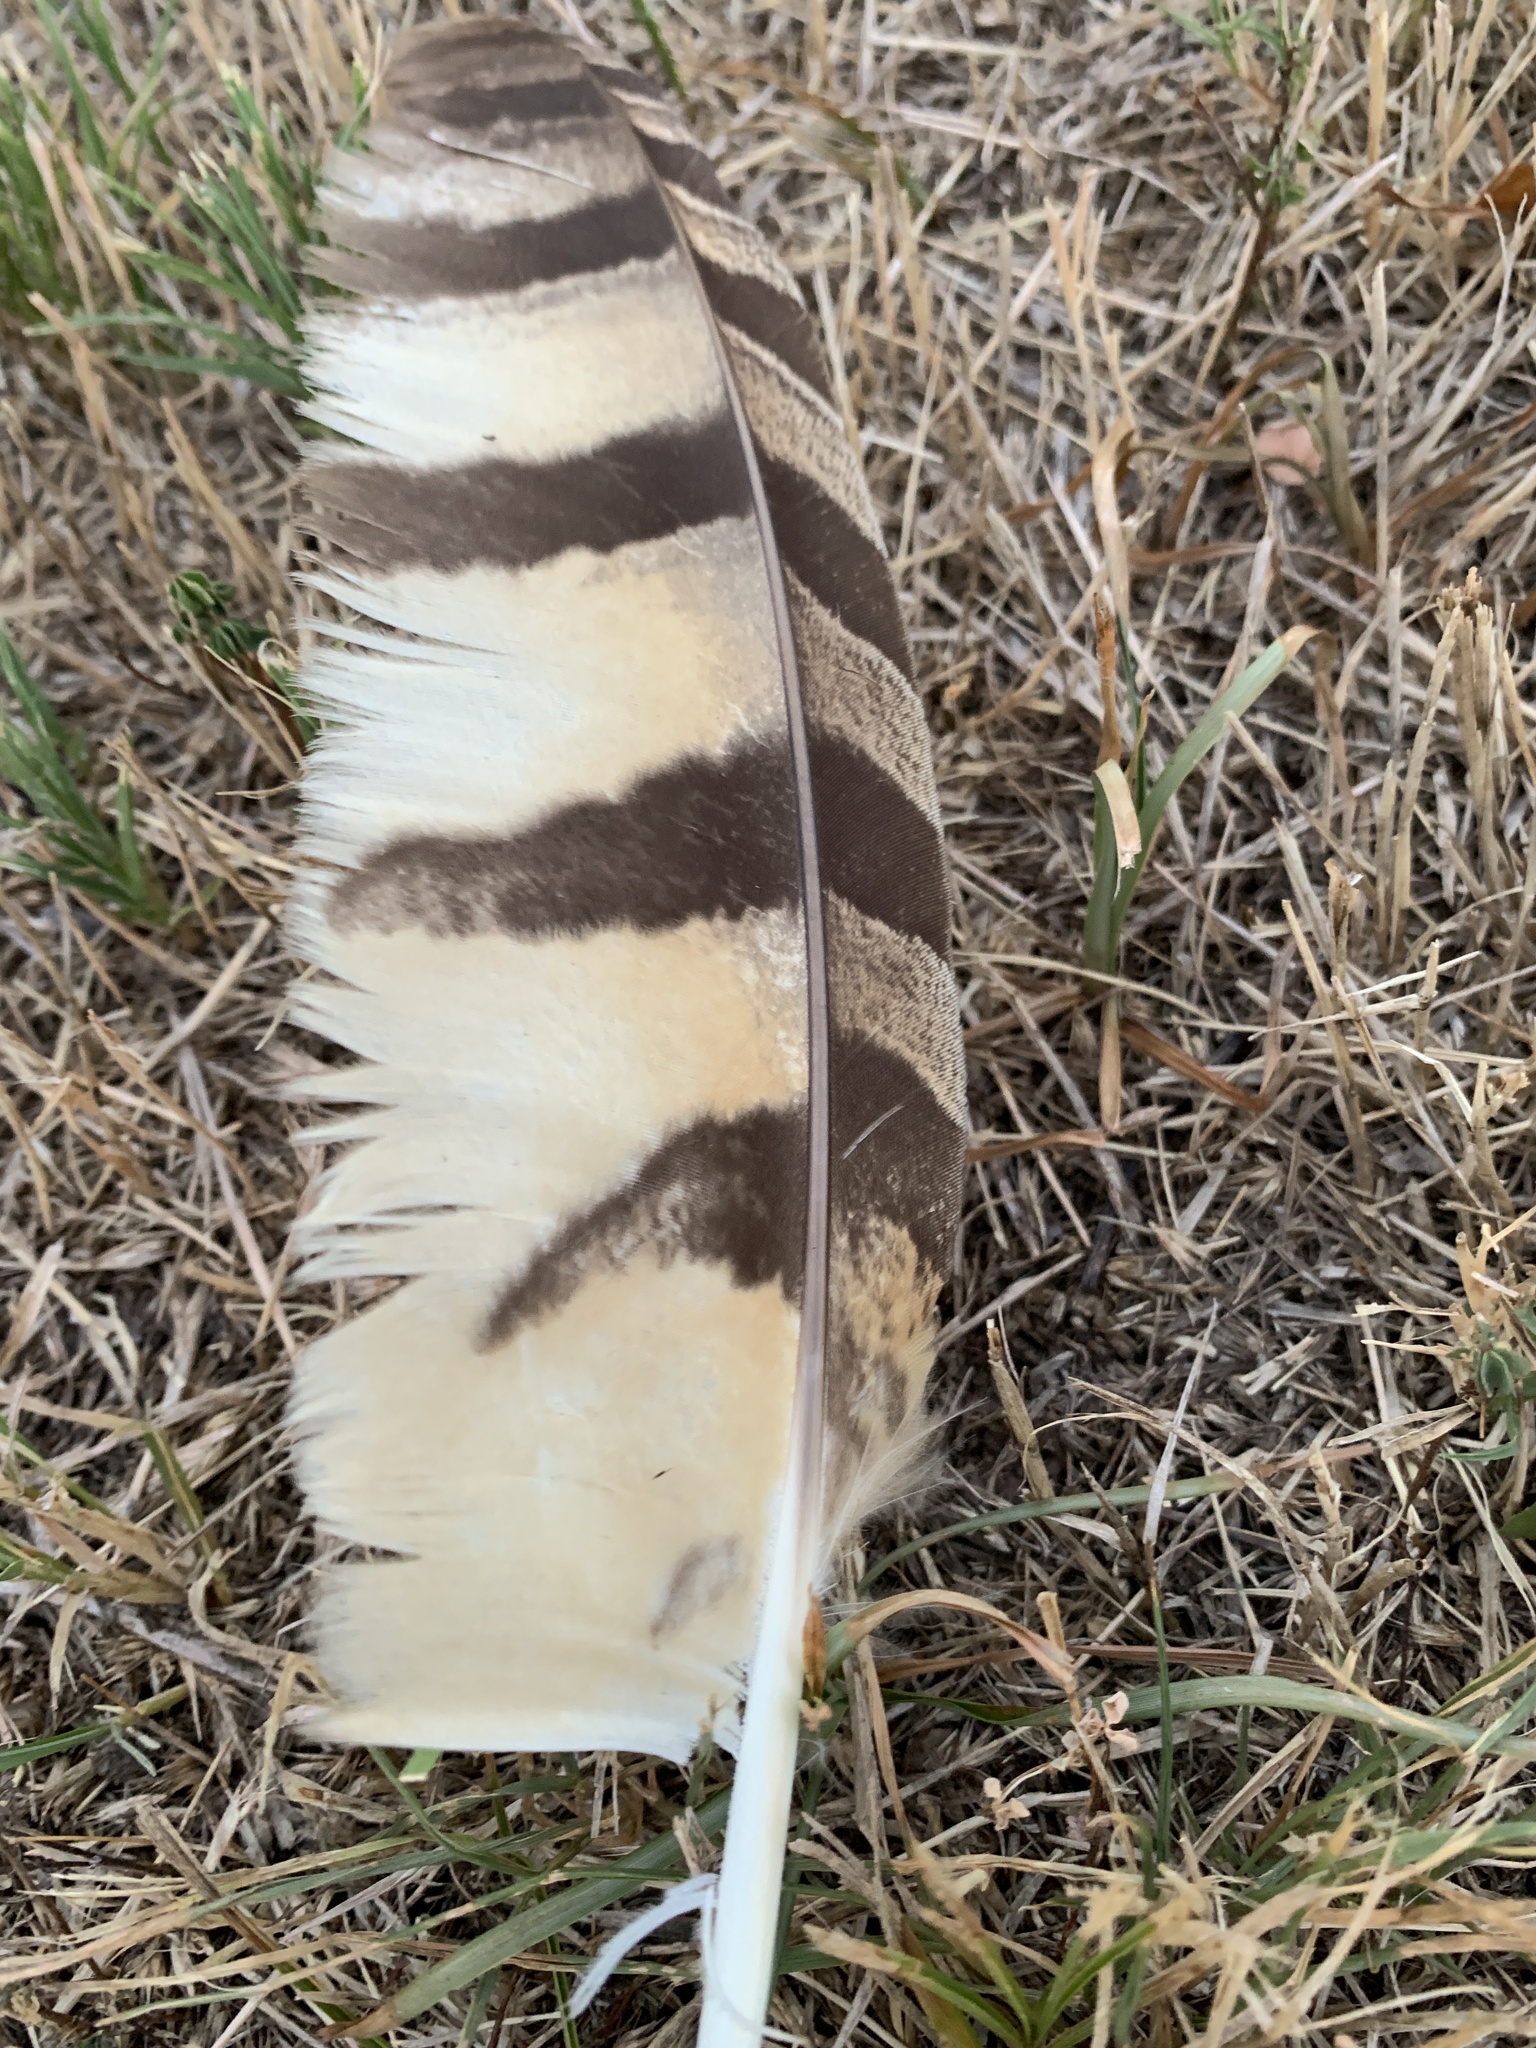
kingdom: Animalia
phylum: Chordata
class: Aves
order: Strigiformes
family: Strigidae
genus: Bubo
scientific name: Bubo virginianus
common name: Great horned owl
